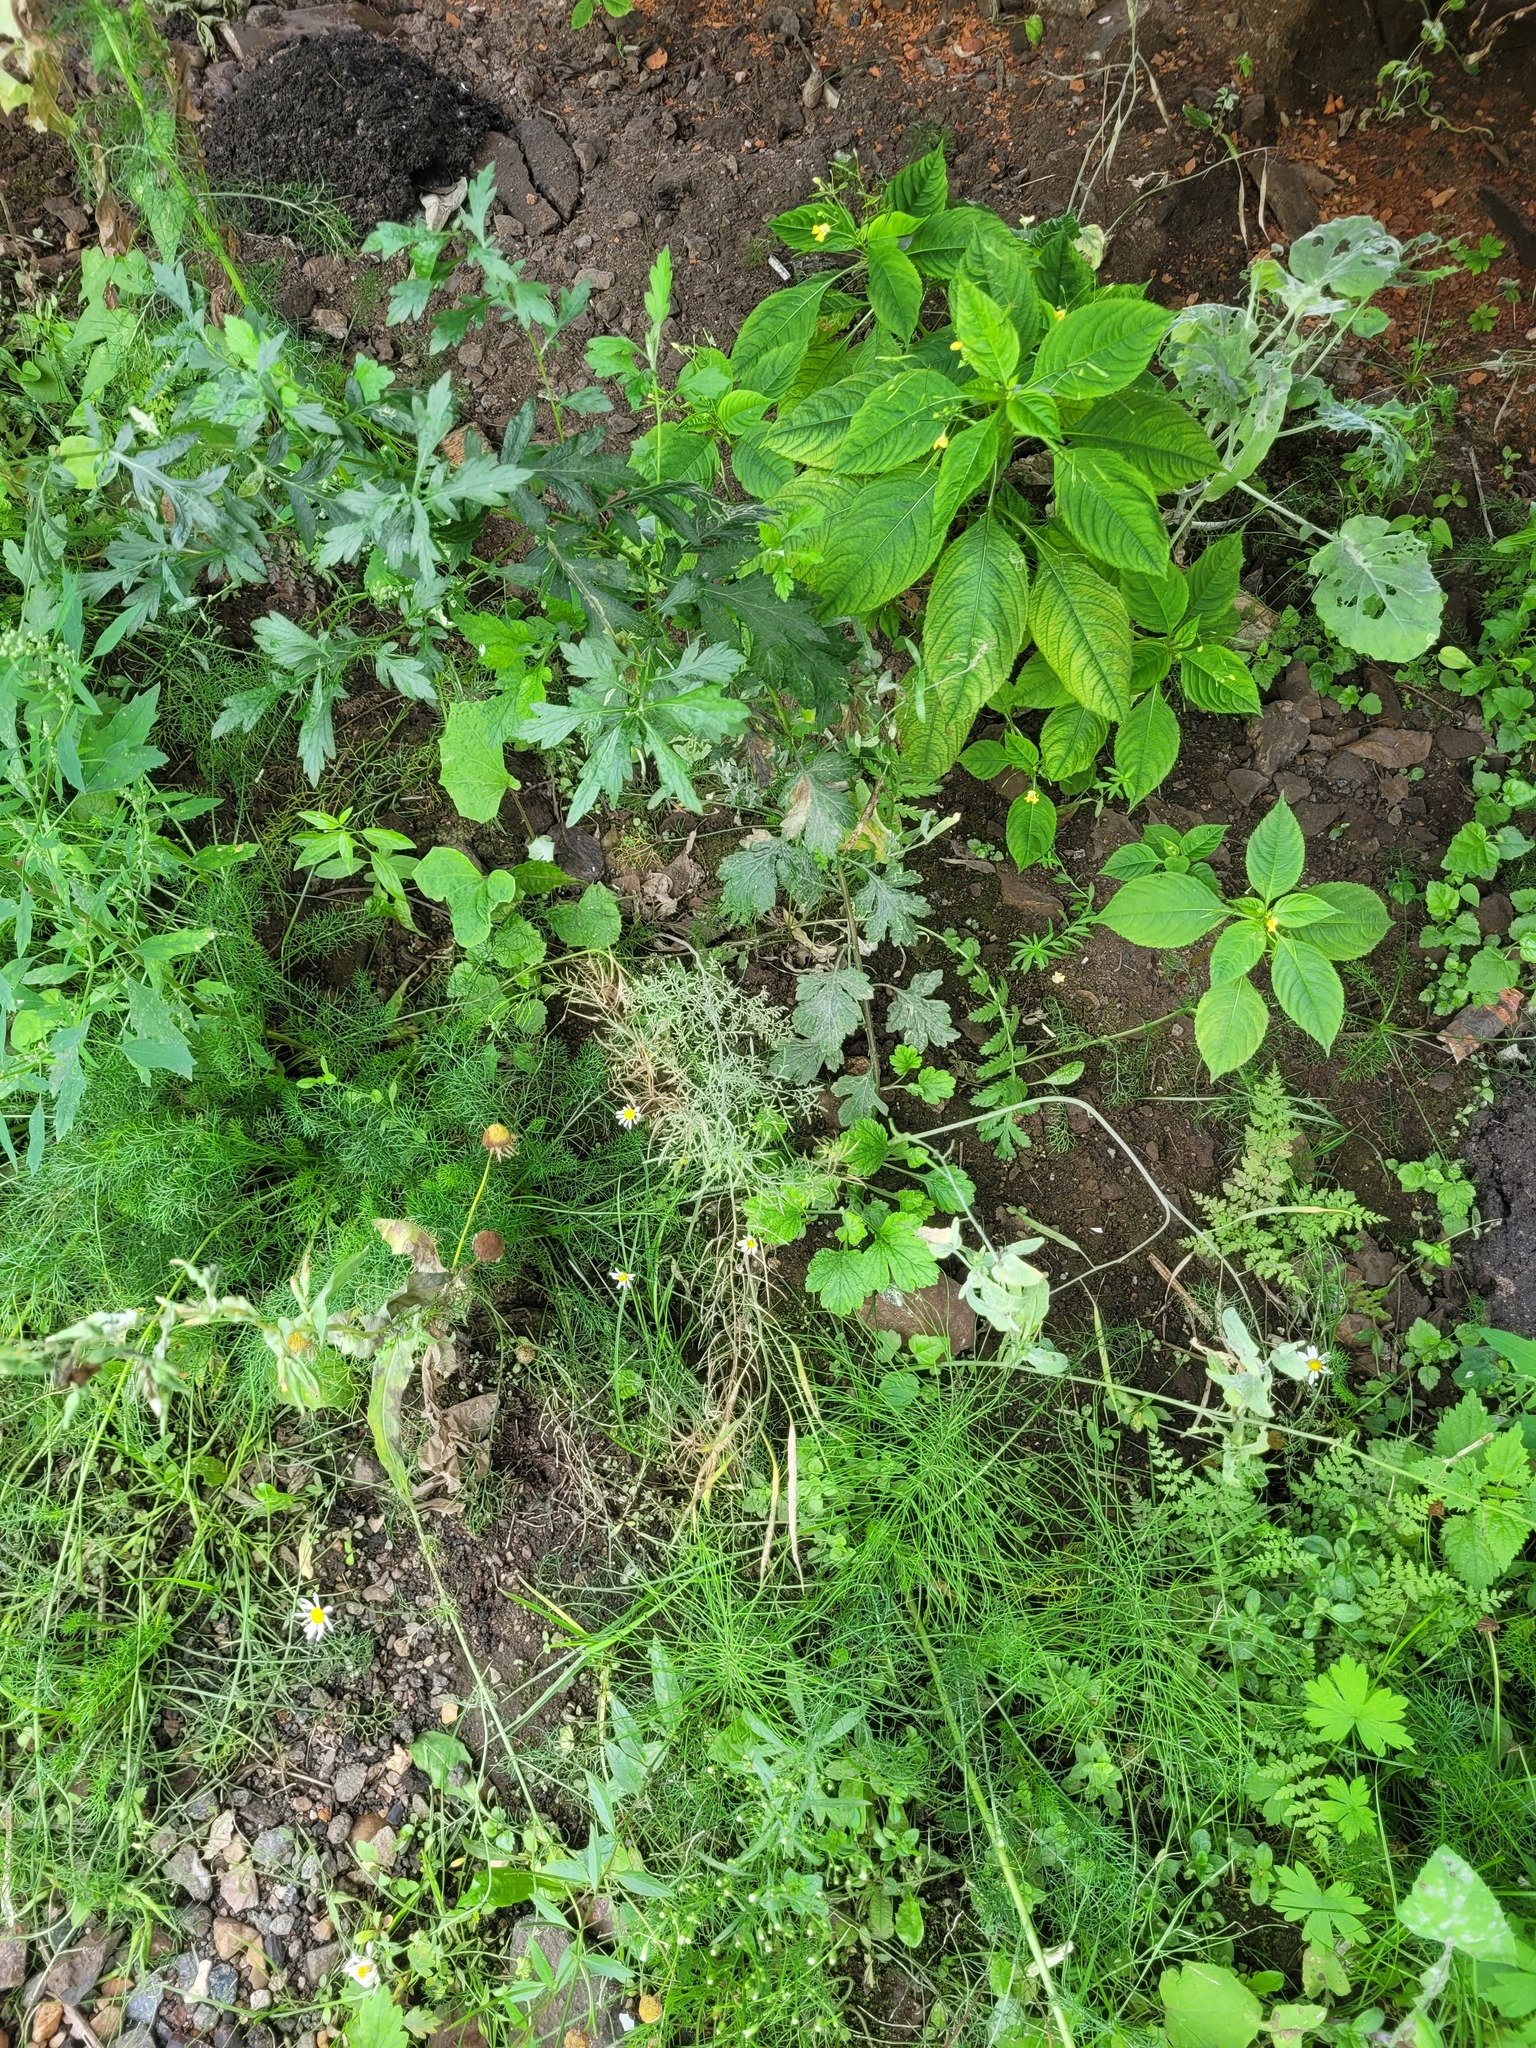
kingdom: Plantae
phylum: Tracheophyta
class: Magnoliopsida
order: Brassicales
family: Brassicaceae
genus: Descurainia
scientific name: Descurainia sophia
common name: Flixweed
